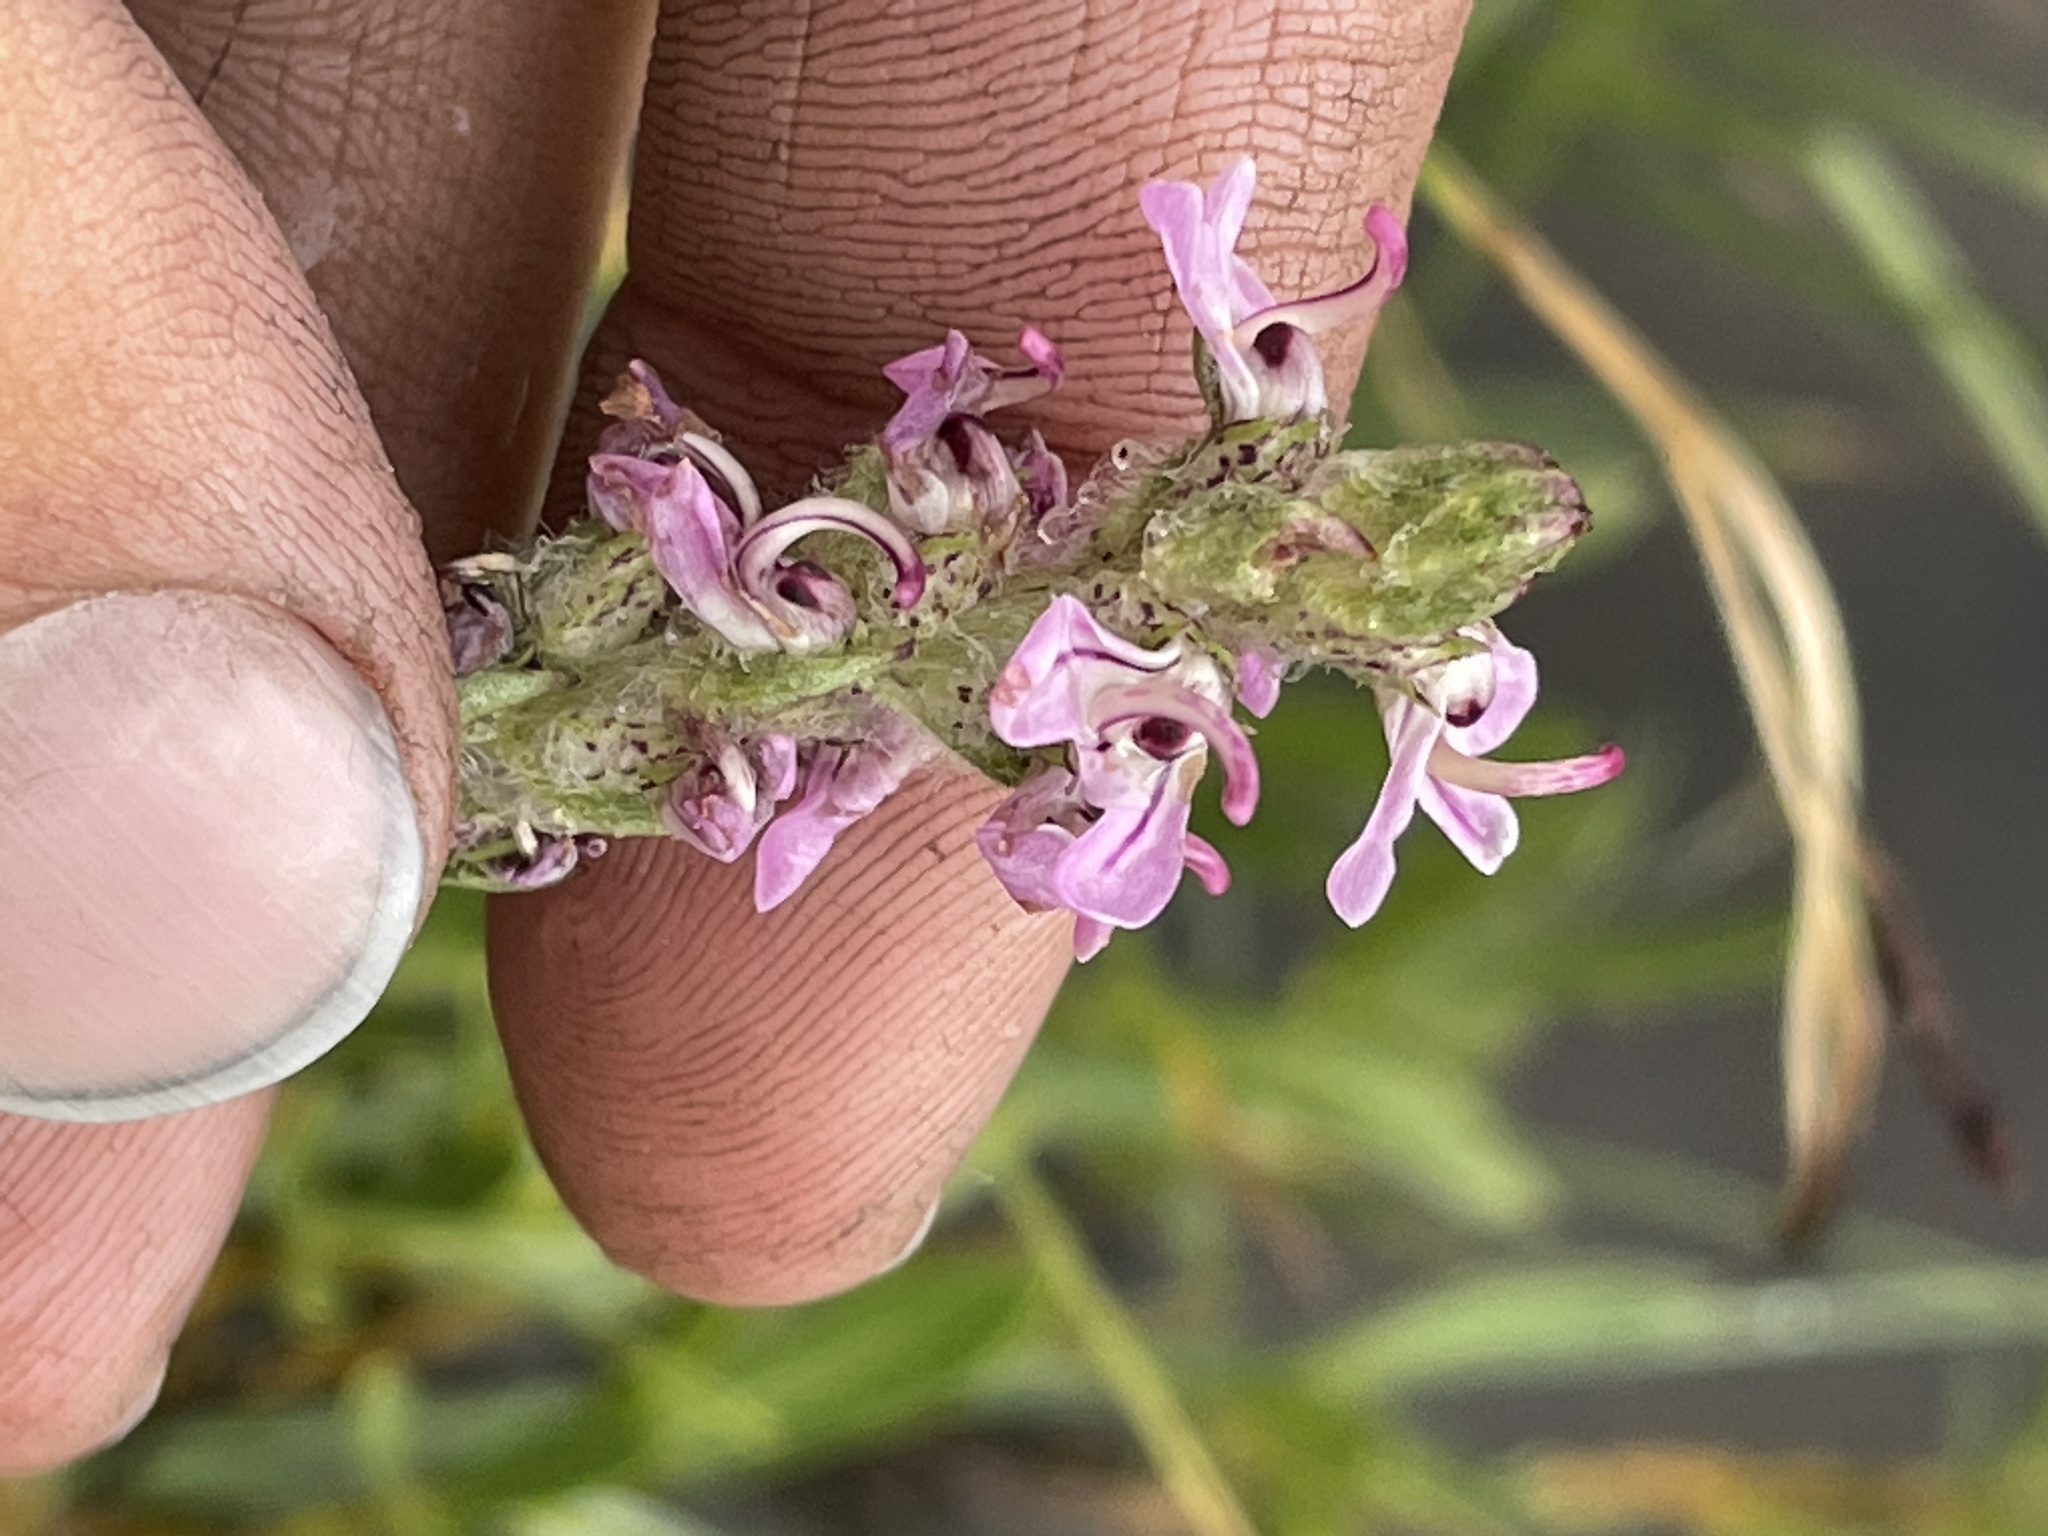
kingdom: Plantae
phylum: Tracheophyta
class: Magnoliopsida
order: Lamiales
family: Orobanchaceae
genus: Pedicularis
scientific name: Pedicularis attollens
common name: Slender pedicularis
